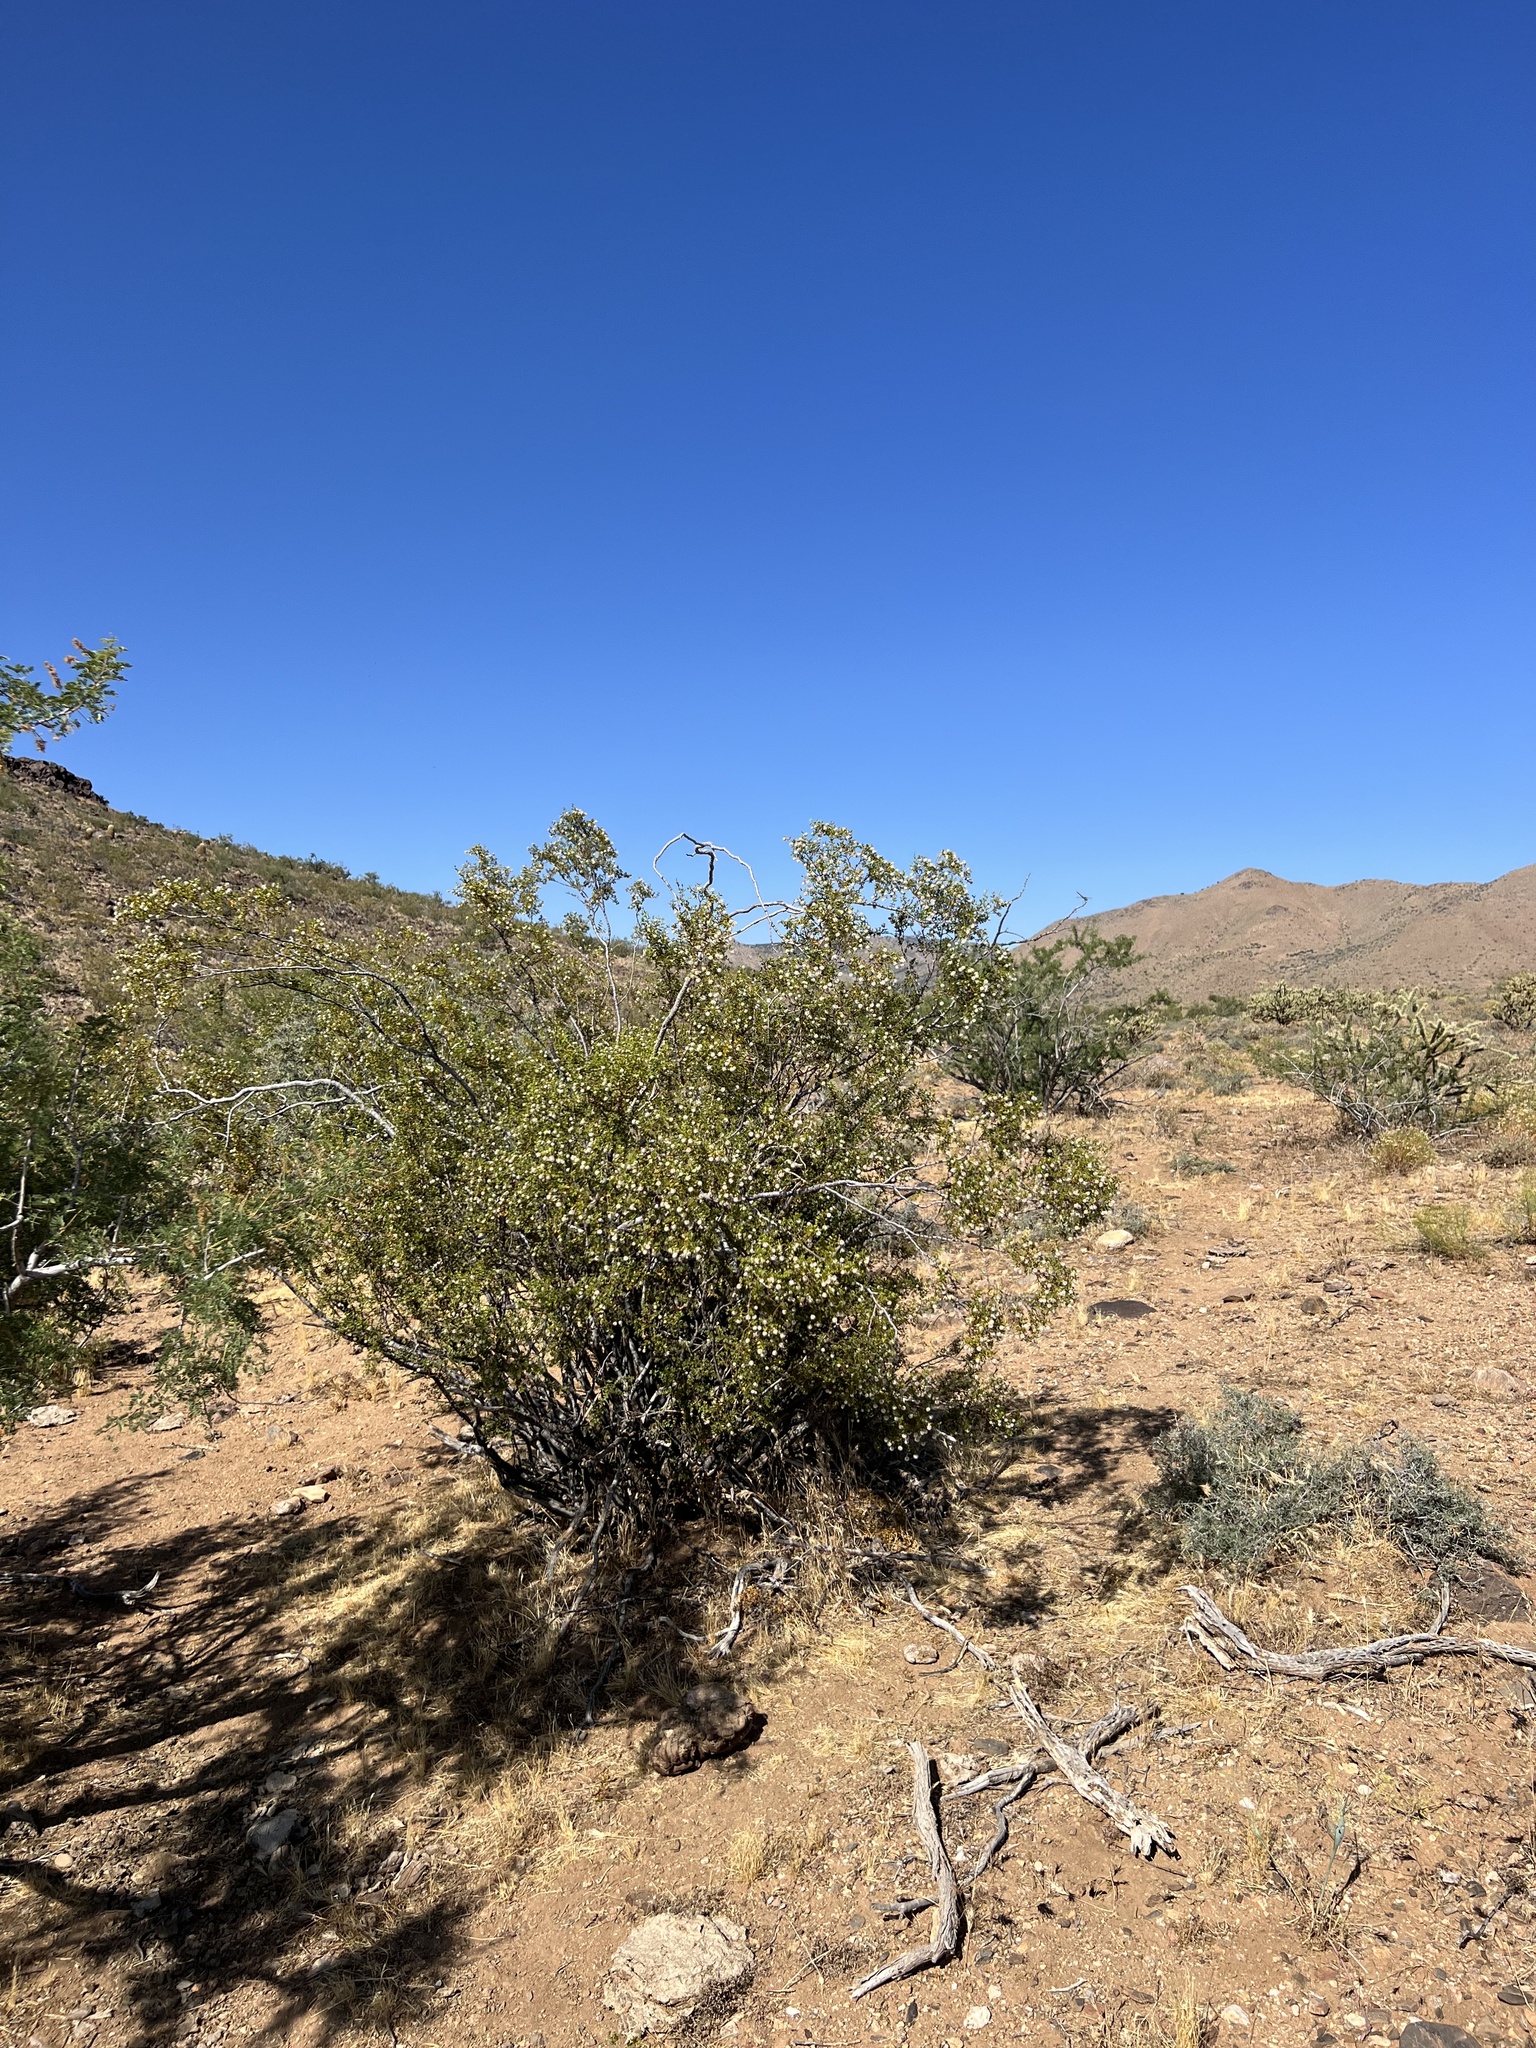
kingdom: Plantae
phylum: Tracheophyta
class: Magnoliopsida
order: Zygophyllales
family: Zygophyllaceae
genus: Larrea
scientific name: Larrea tridentata
